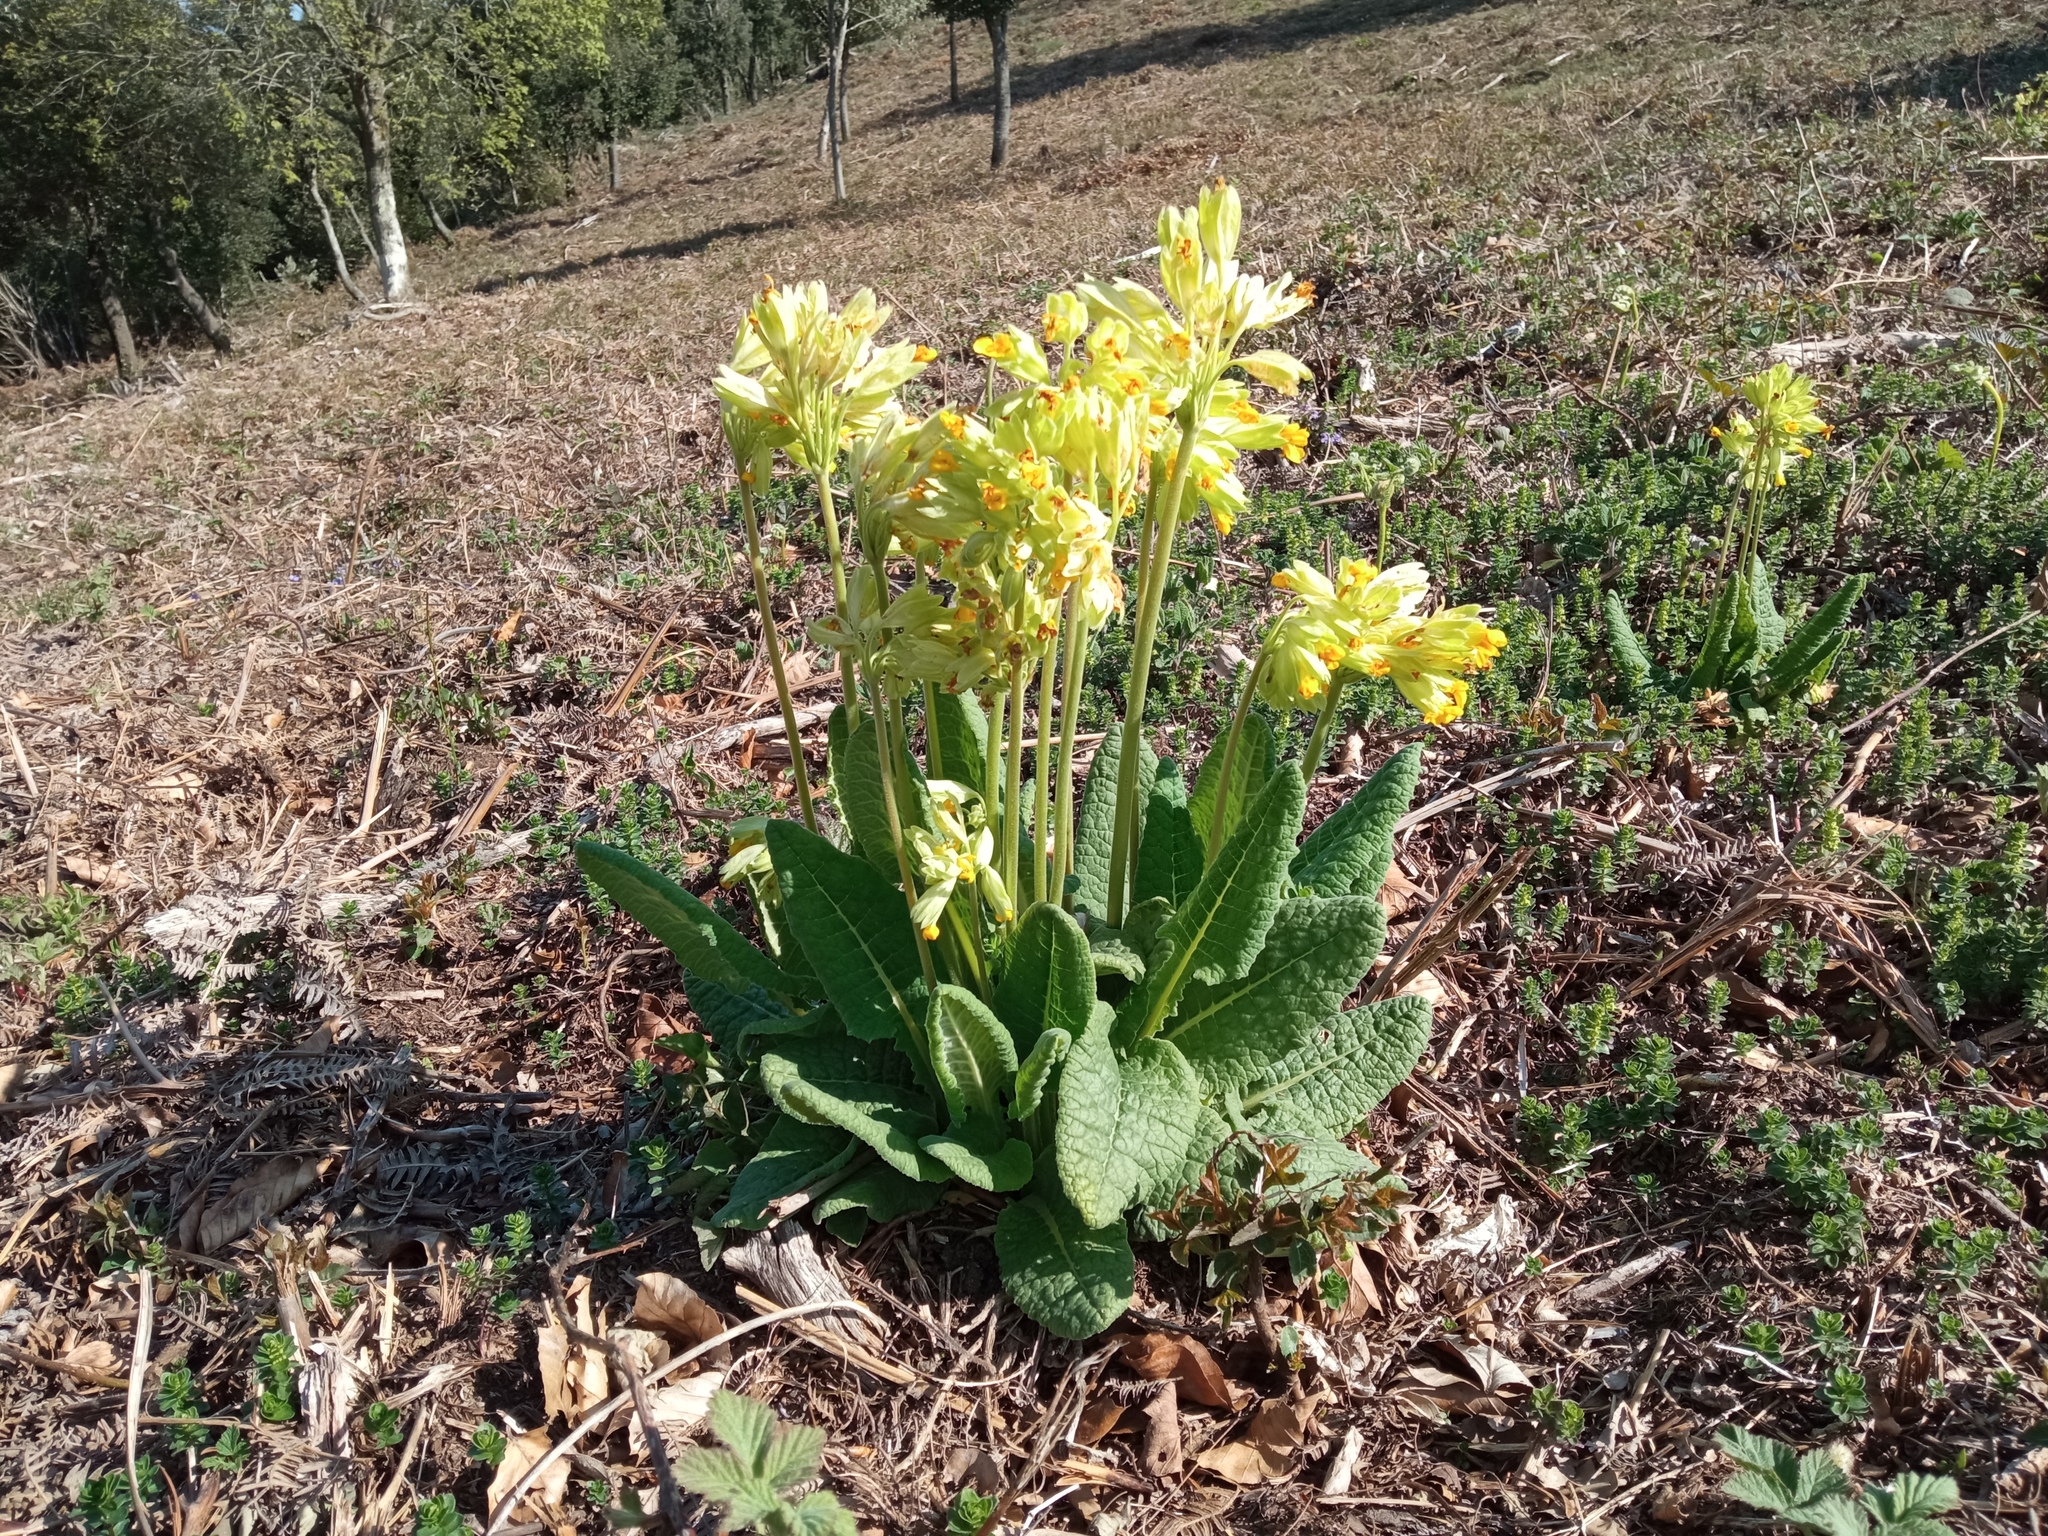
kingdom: Plantae
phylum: Tracheophyta
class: Magnoliopsida
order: Ericales
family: Primulaceae
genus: Primula
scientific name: Primula veris
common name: Cowslip
